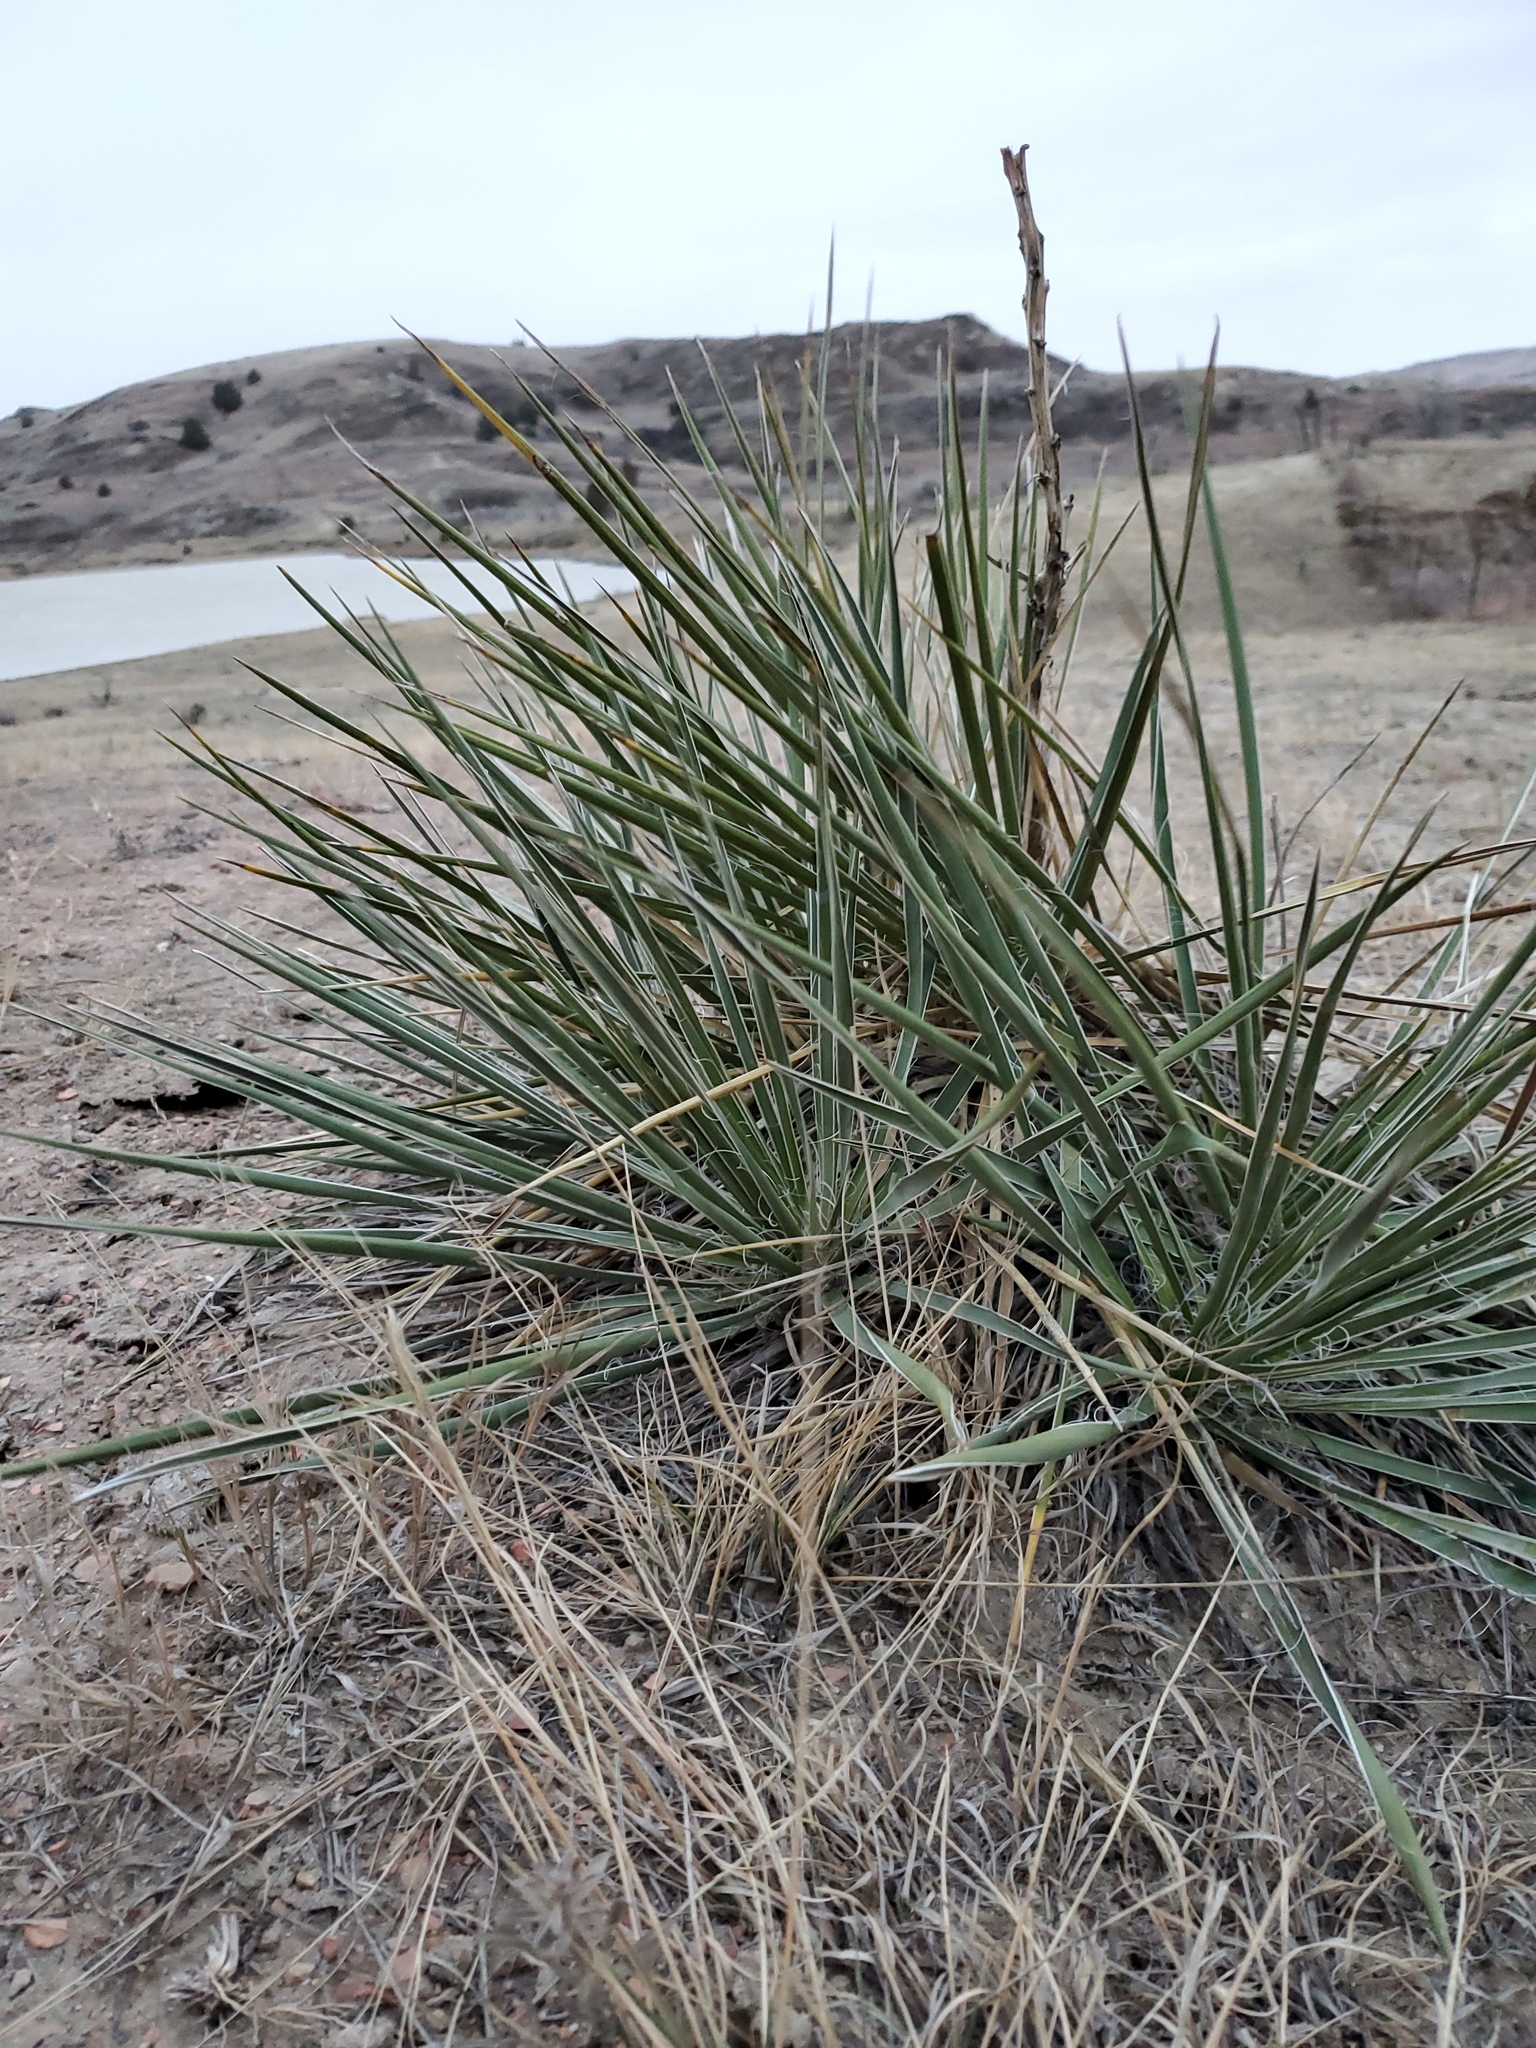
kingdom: Plantae
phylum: Tracheophyta
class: Liliopsida
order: Asparagales
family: Asparagaceae
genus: Yucca
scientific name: Yucca glauca
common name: Great plains yucca
